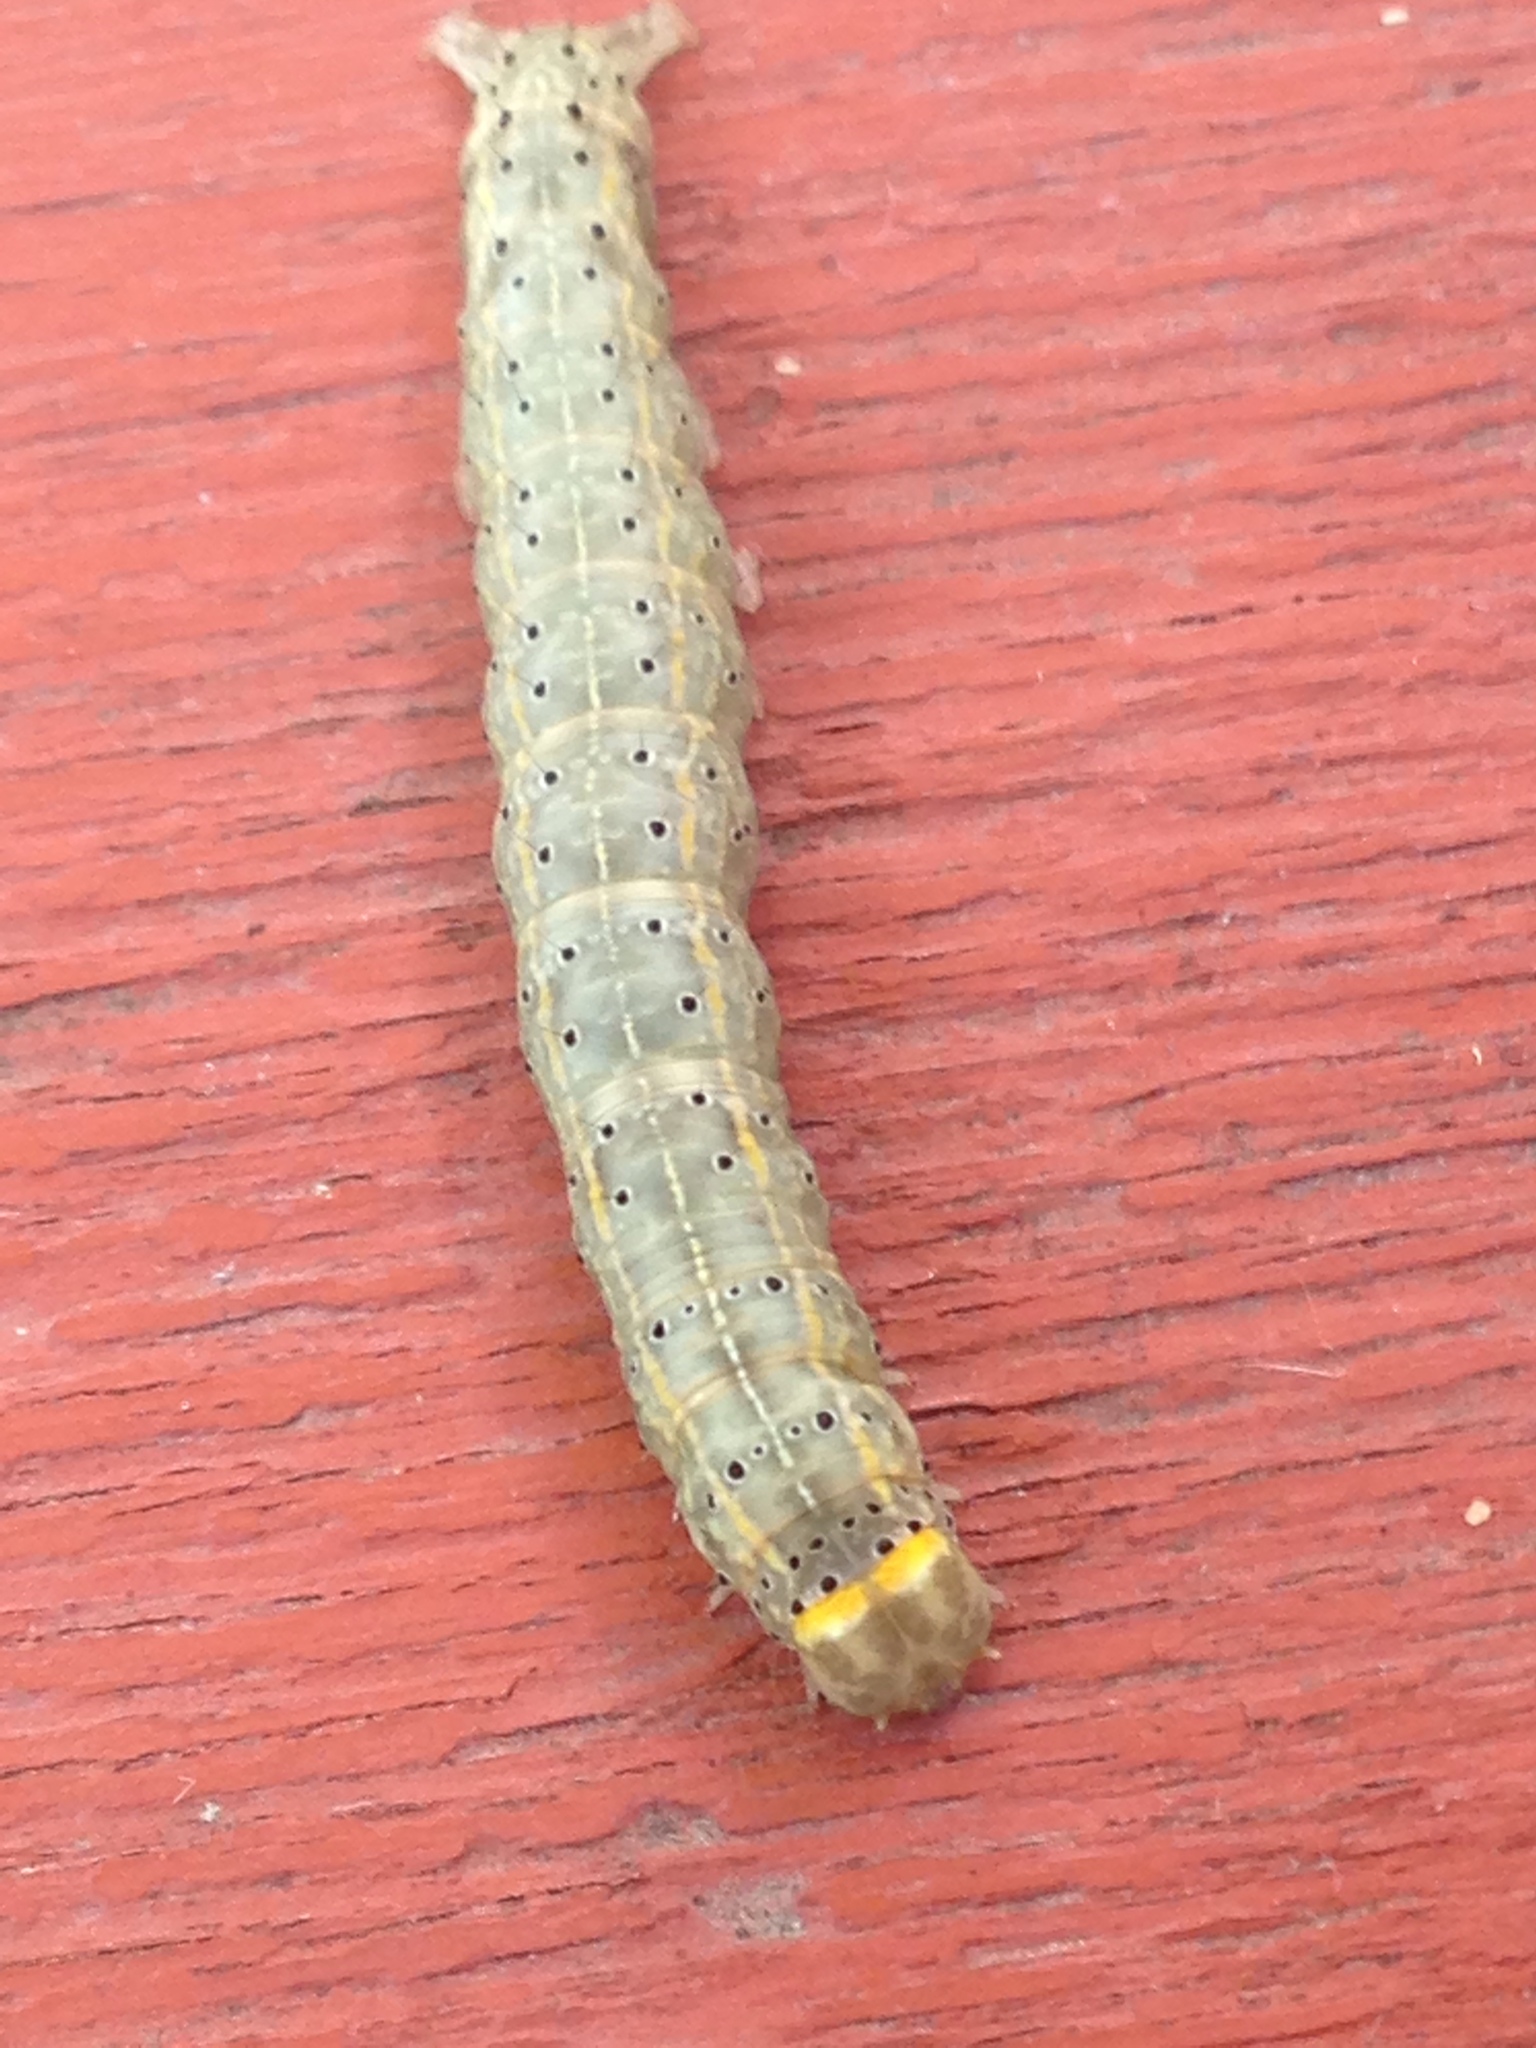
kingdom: Animalia
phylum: Arthropoda
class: Insecta
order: Lepidoptera
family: Erebidae
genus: Rusicada
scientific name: Rusicada privata
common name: Hibiscus leaf caterpillar moth
